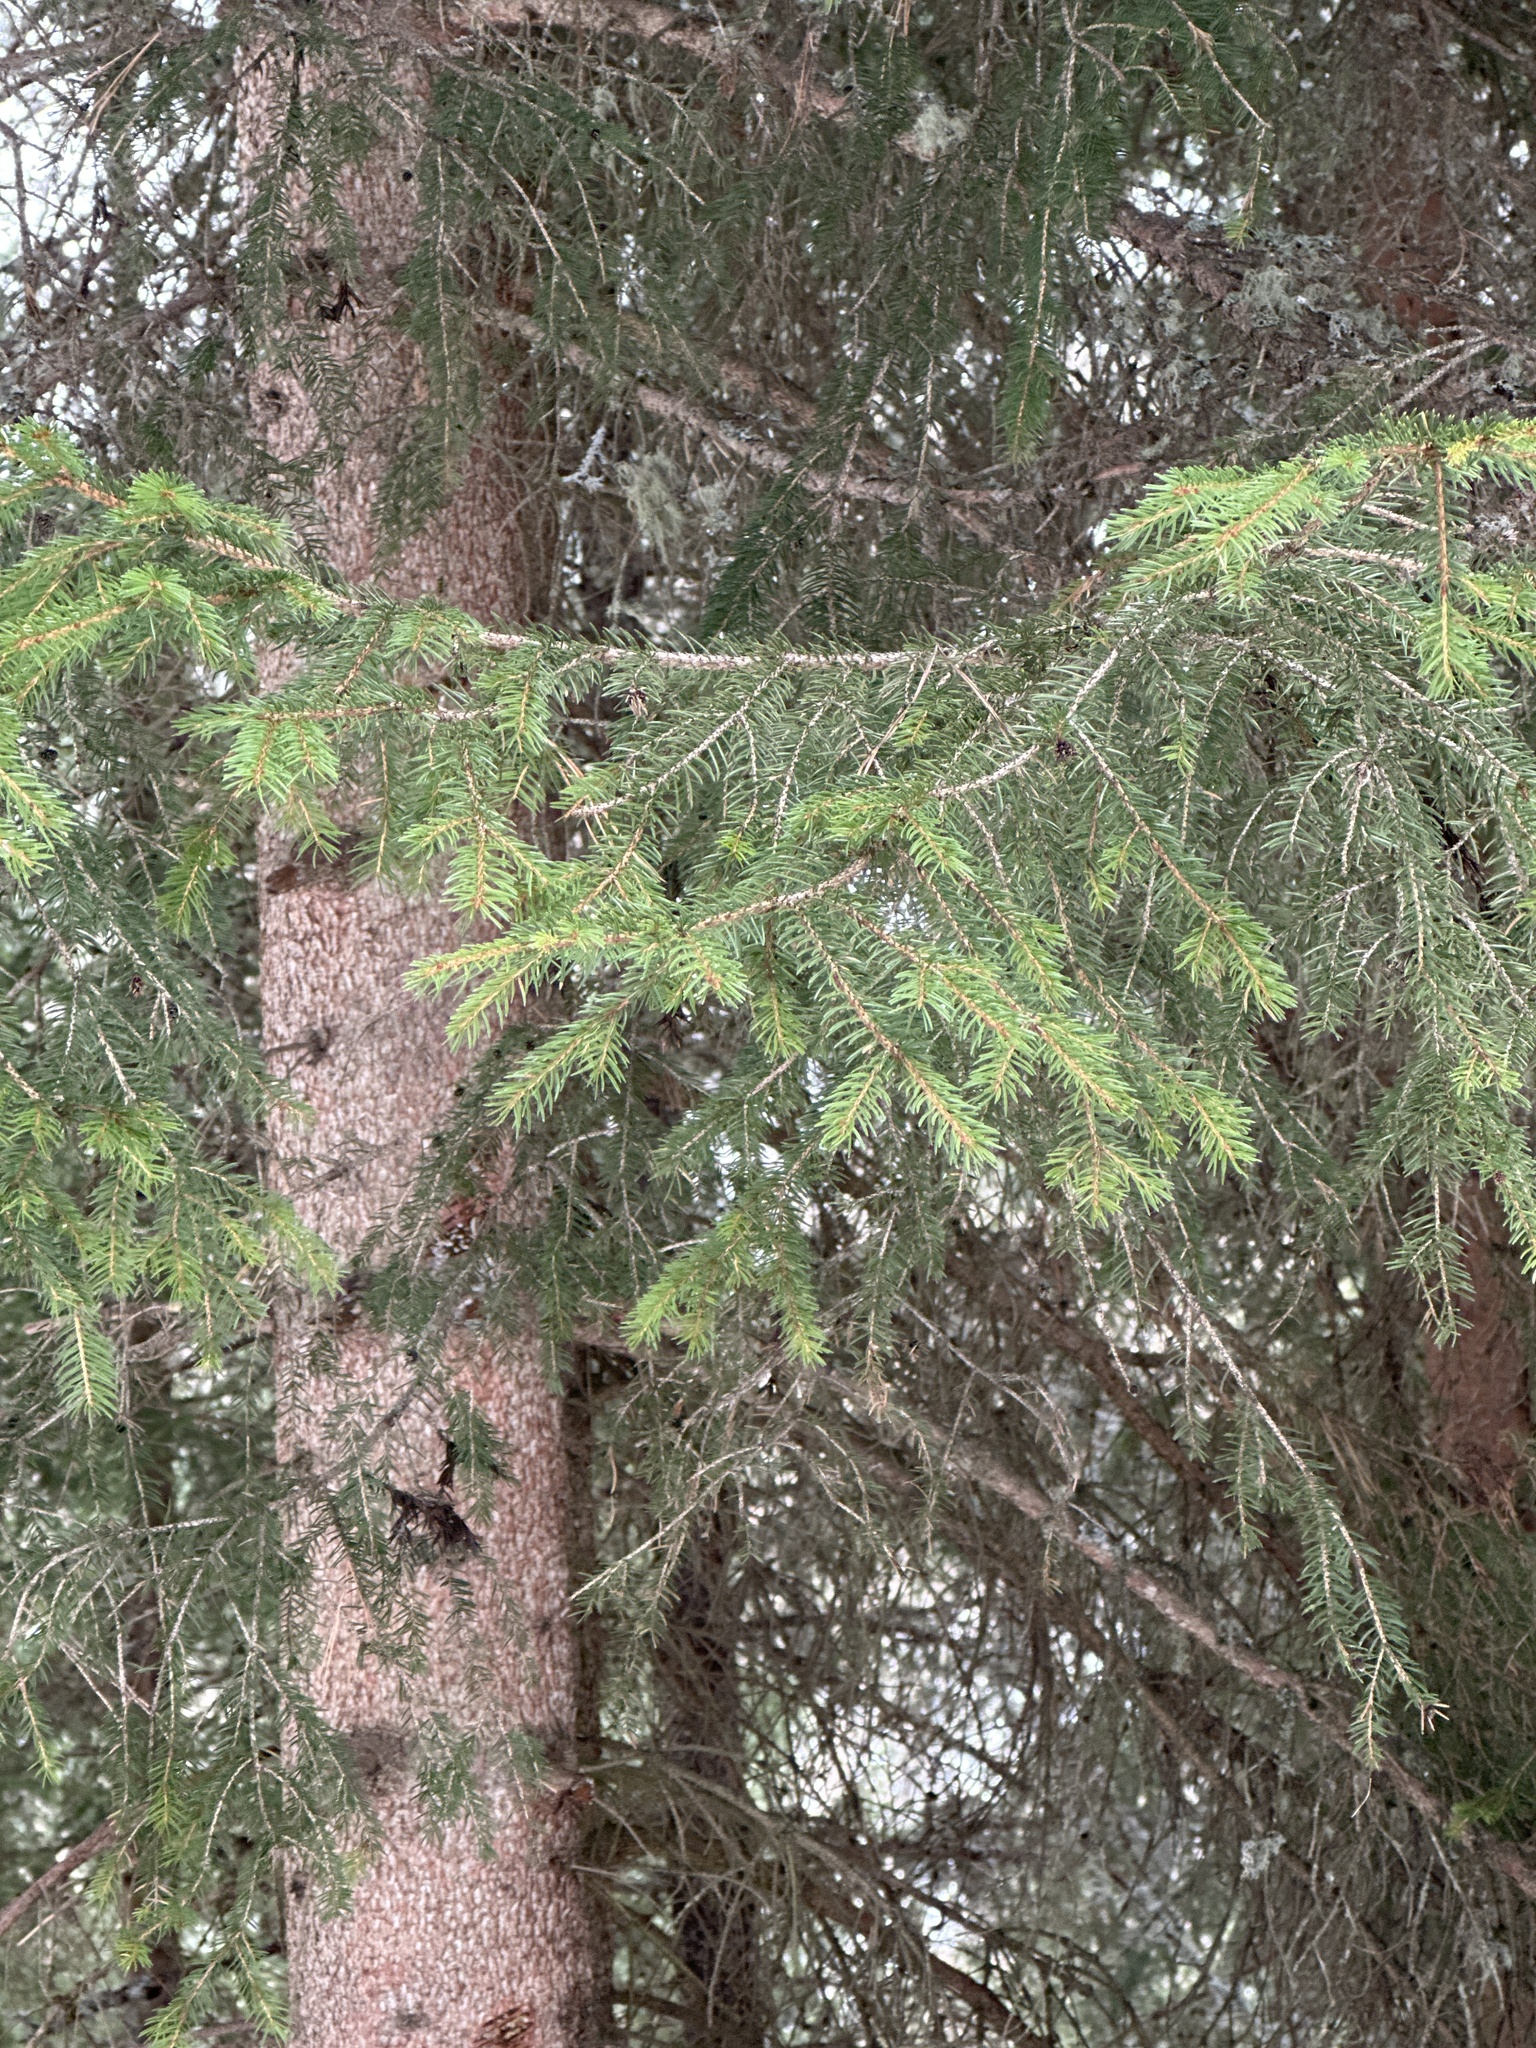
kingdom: Plantae
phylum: Tracheophyta
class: Pinopsida
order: Pinales
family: Pinaceae
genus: Picea
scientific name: Picea abies
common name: Norway spruce
